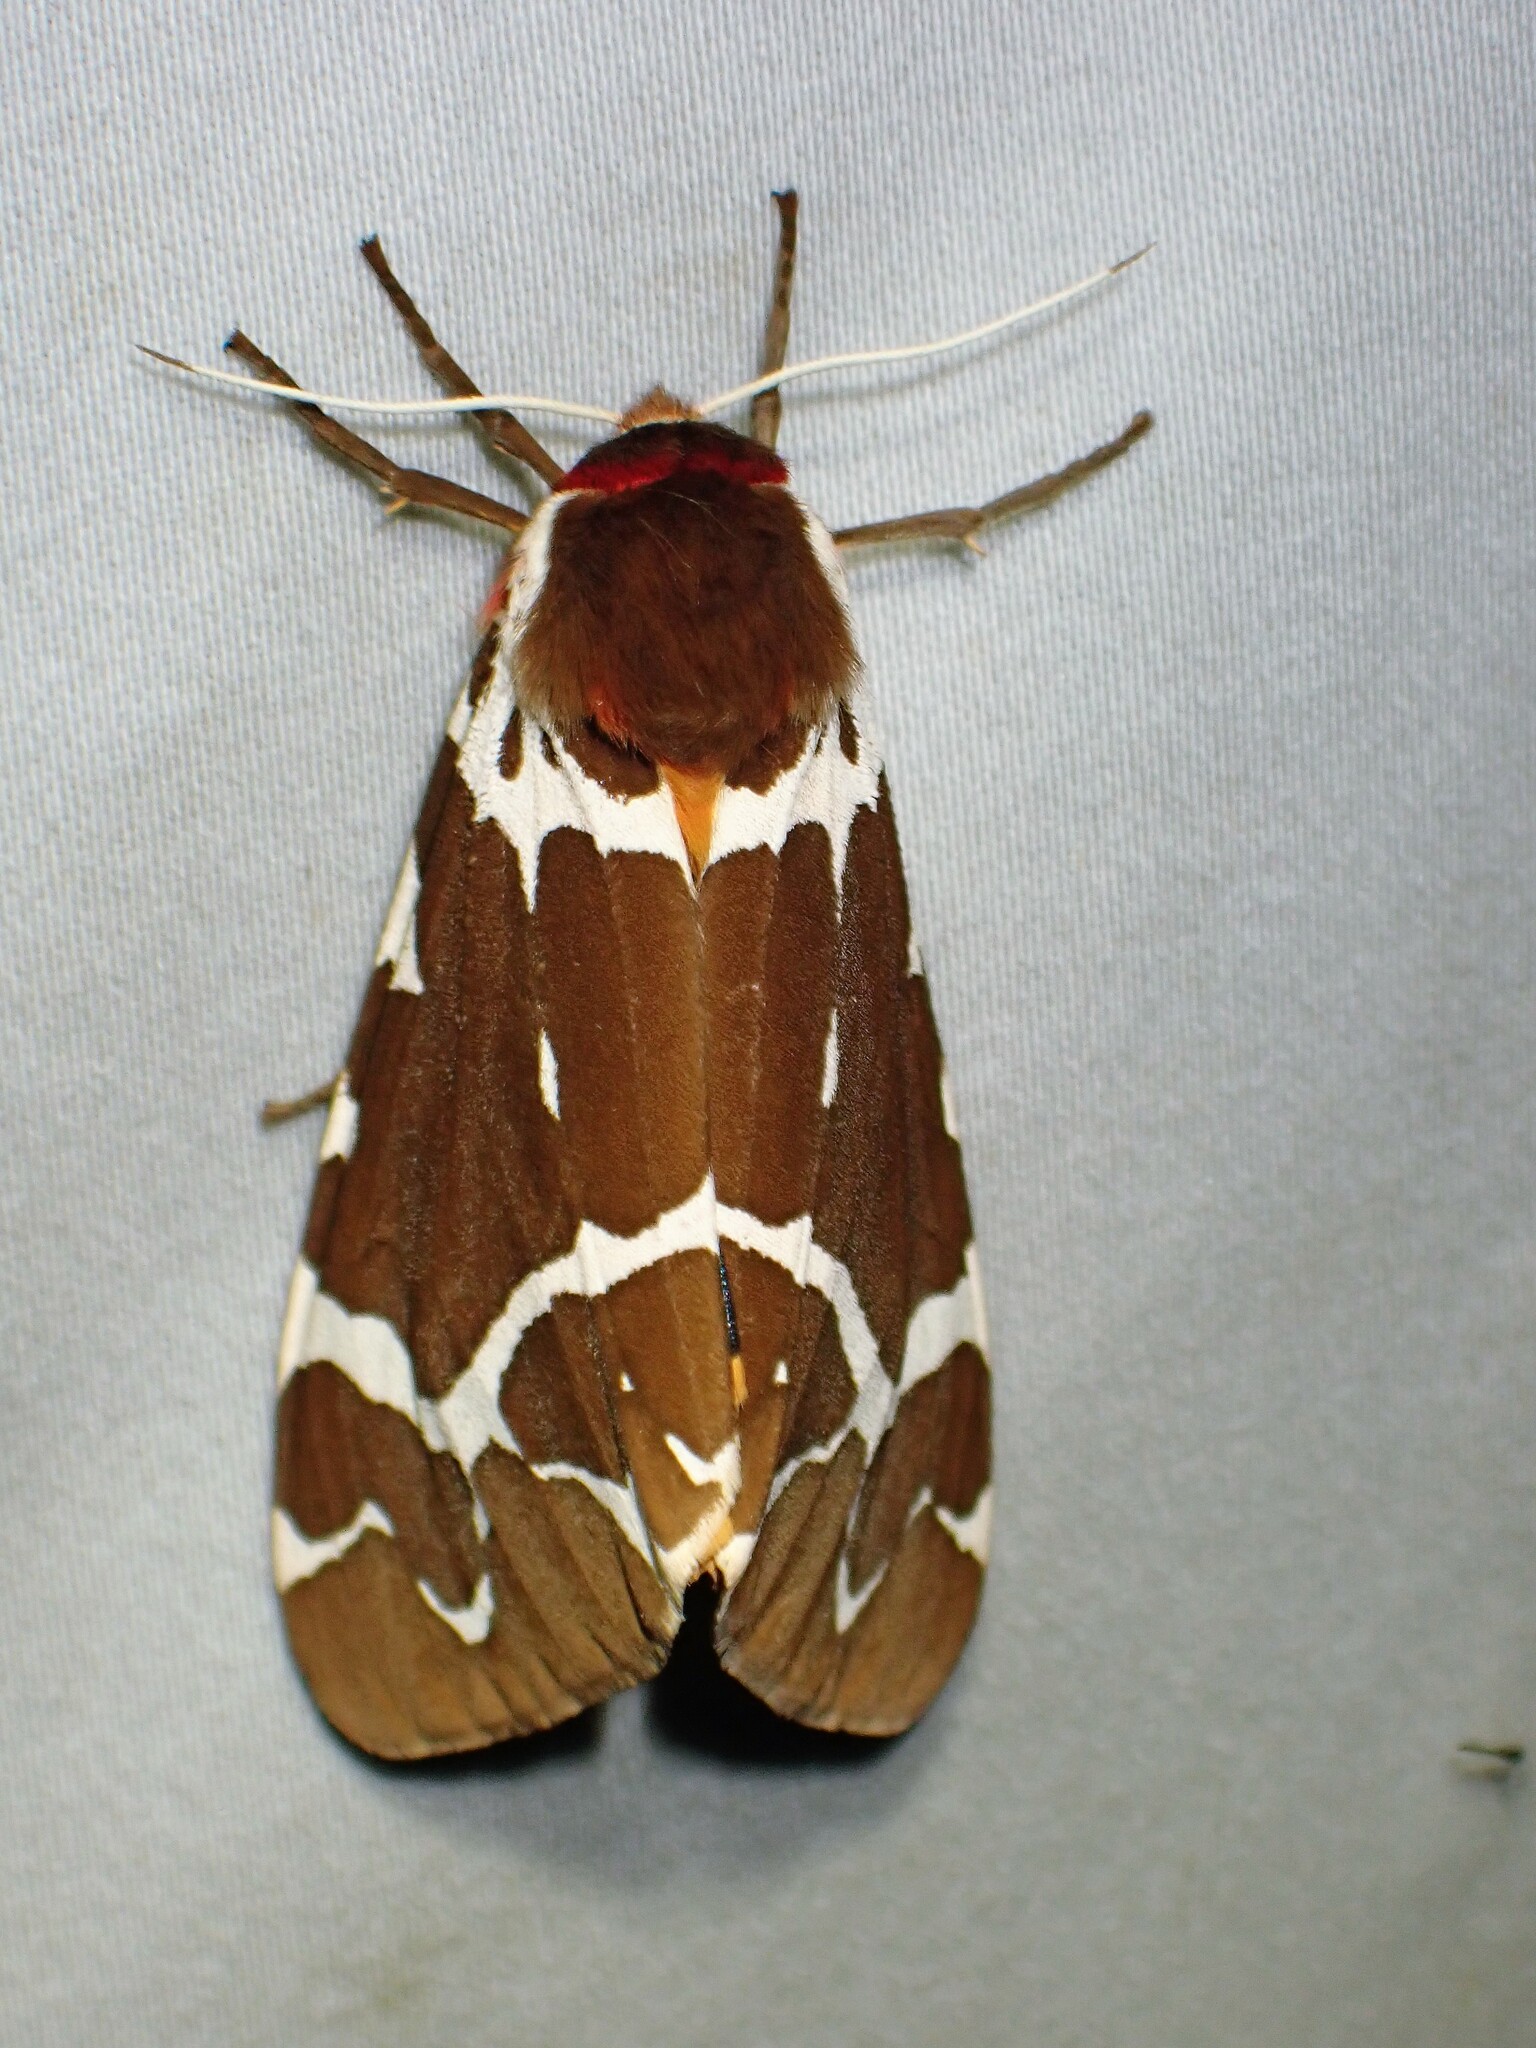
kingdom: Animalia
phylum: Arthropoda
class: Insecta
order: Lepidoptera
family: Erebidae
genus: Arctia
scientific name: Arctia caja
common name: Garden tiger
